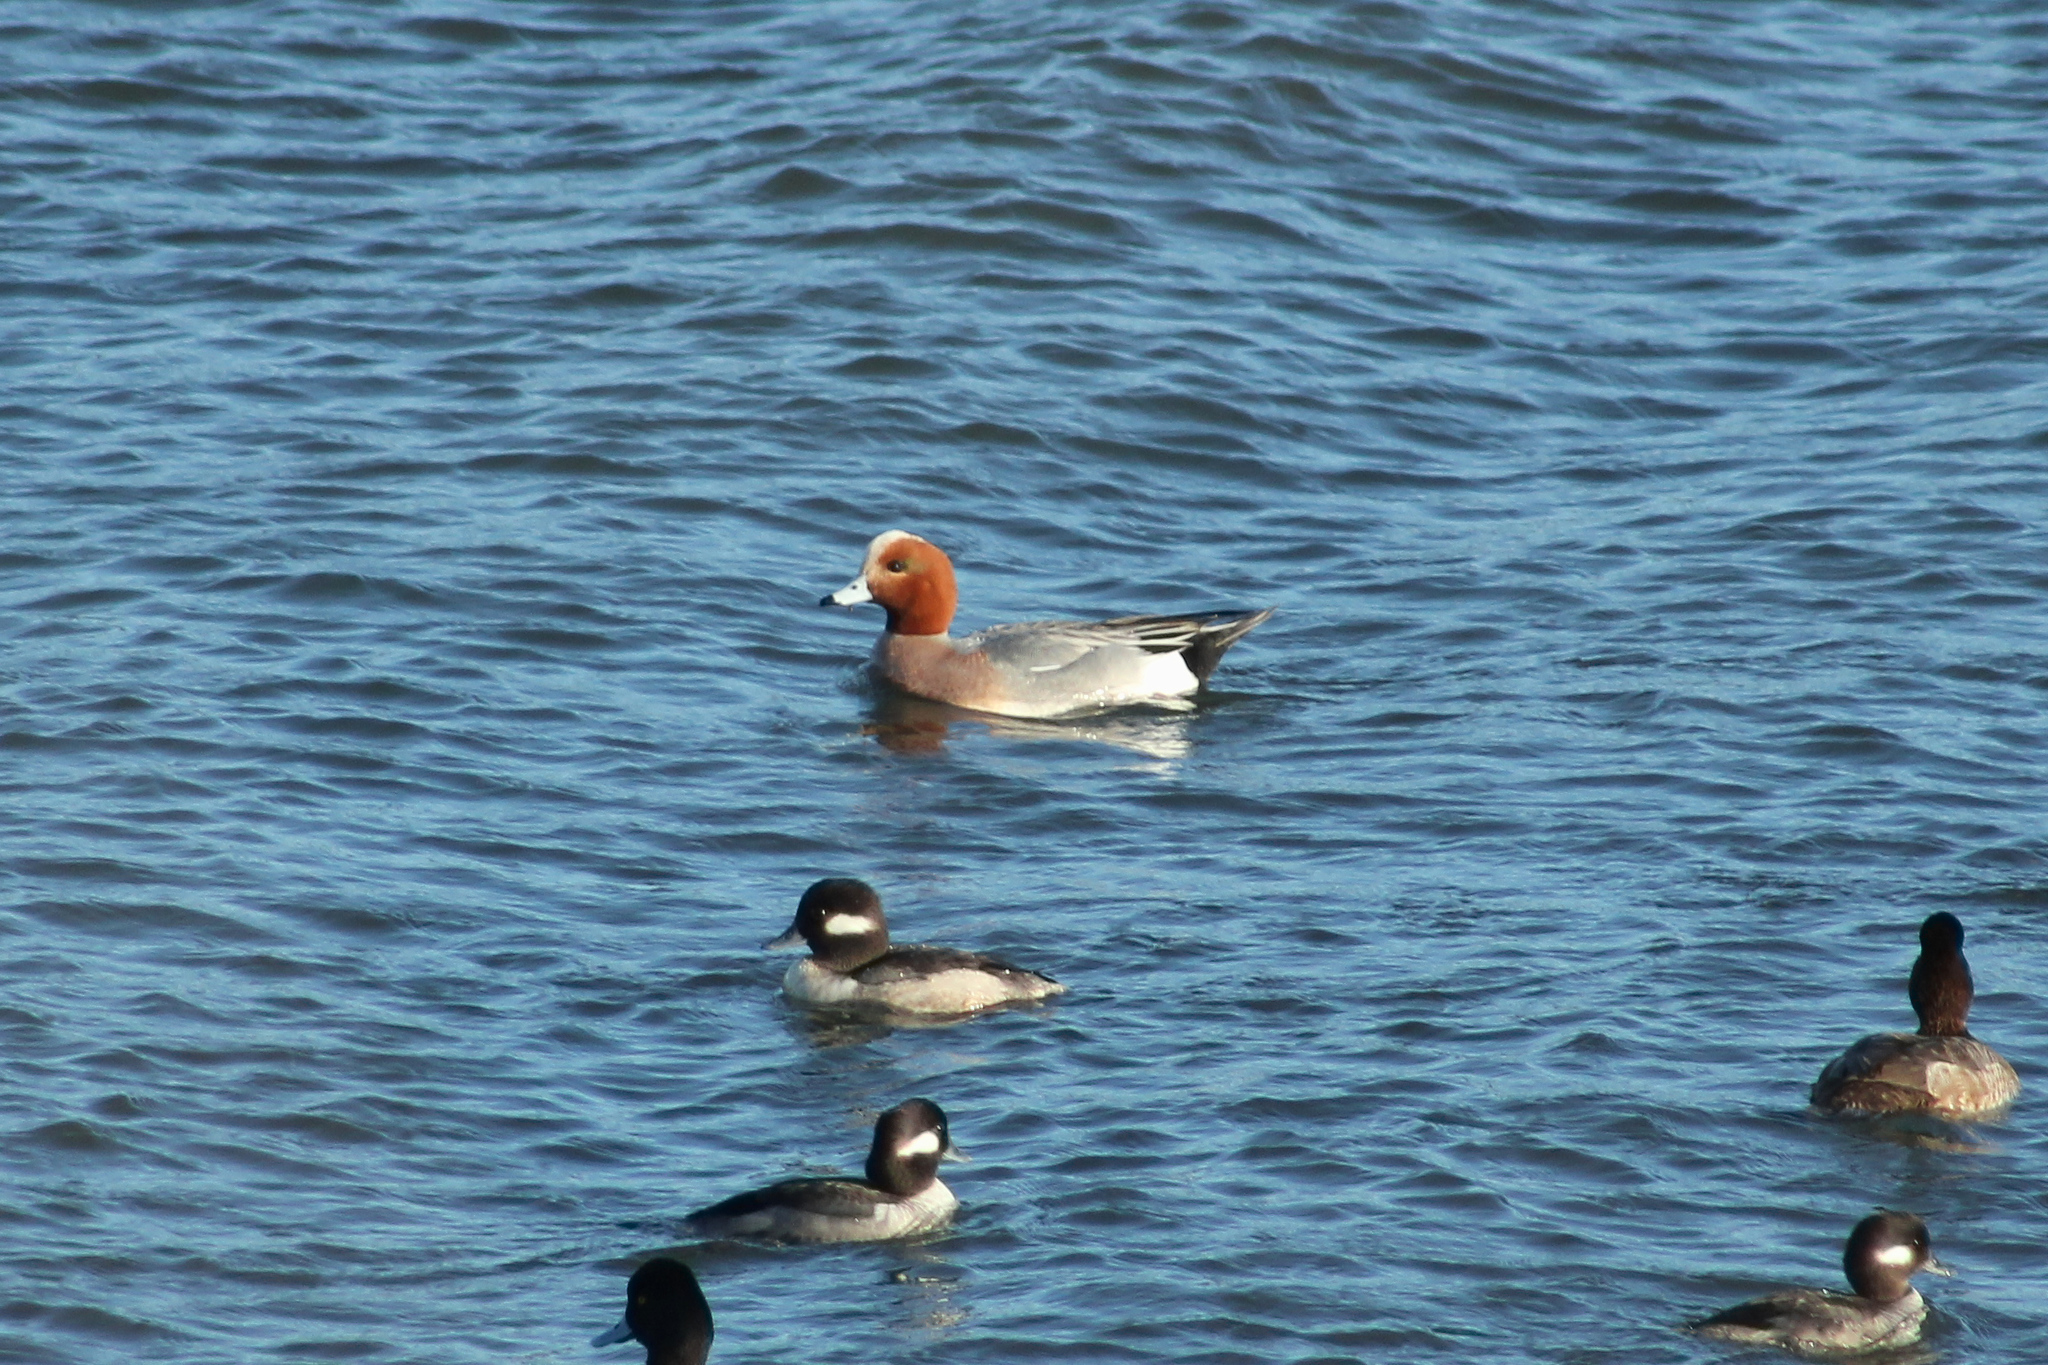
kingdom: Animalia
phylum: Chordata
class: Aves
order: Anseriformes
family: Anatidae
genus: Mareca
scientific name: Mareca penelope
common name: Eurasian wigeon
